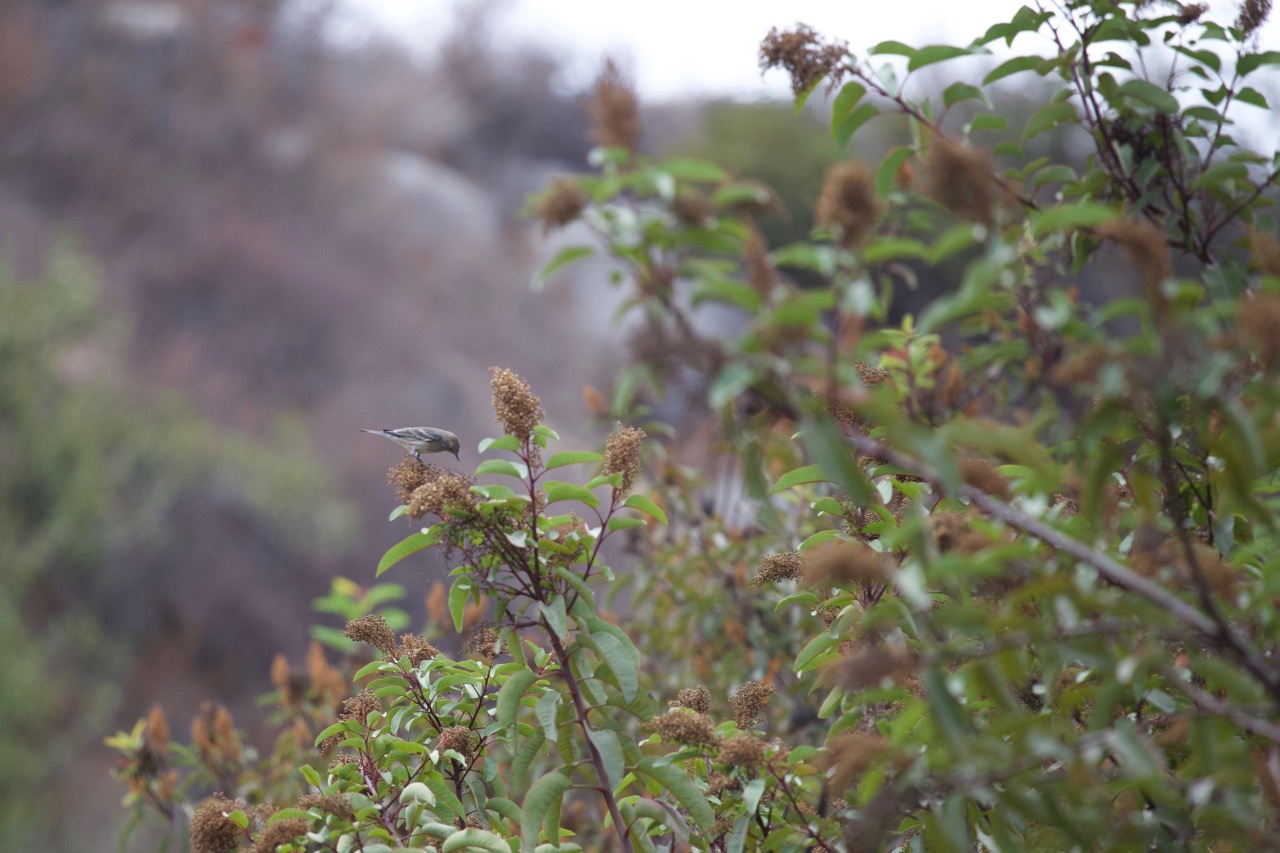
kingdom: Animalia
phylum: Chordata
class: Aves
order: Passeriformes
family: Parulidae
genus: Setophaga
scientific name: Setophaga coronata
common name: Myrtle warbler
